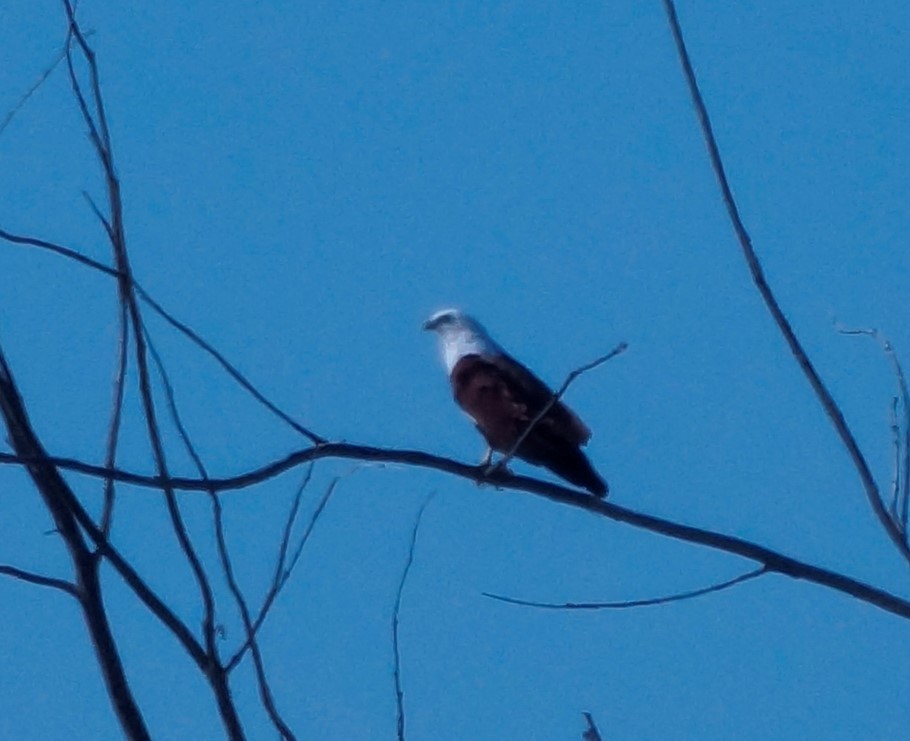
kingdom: Animalia
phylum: Chordata
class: Aves
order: Accipitriformes
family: Accipitridae
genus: Haliastur
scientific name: Haliastur indus
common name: Brahminy kite
